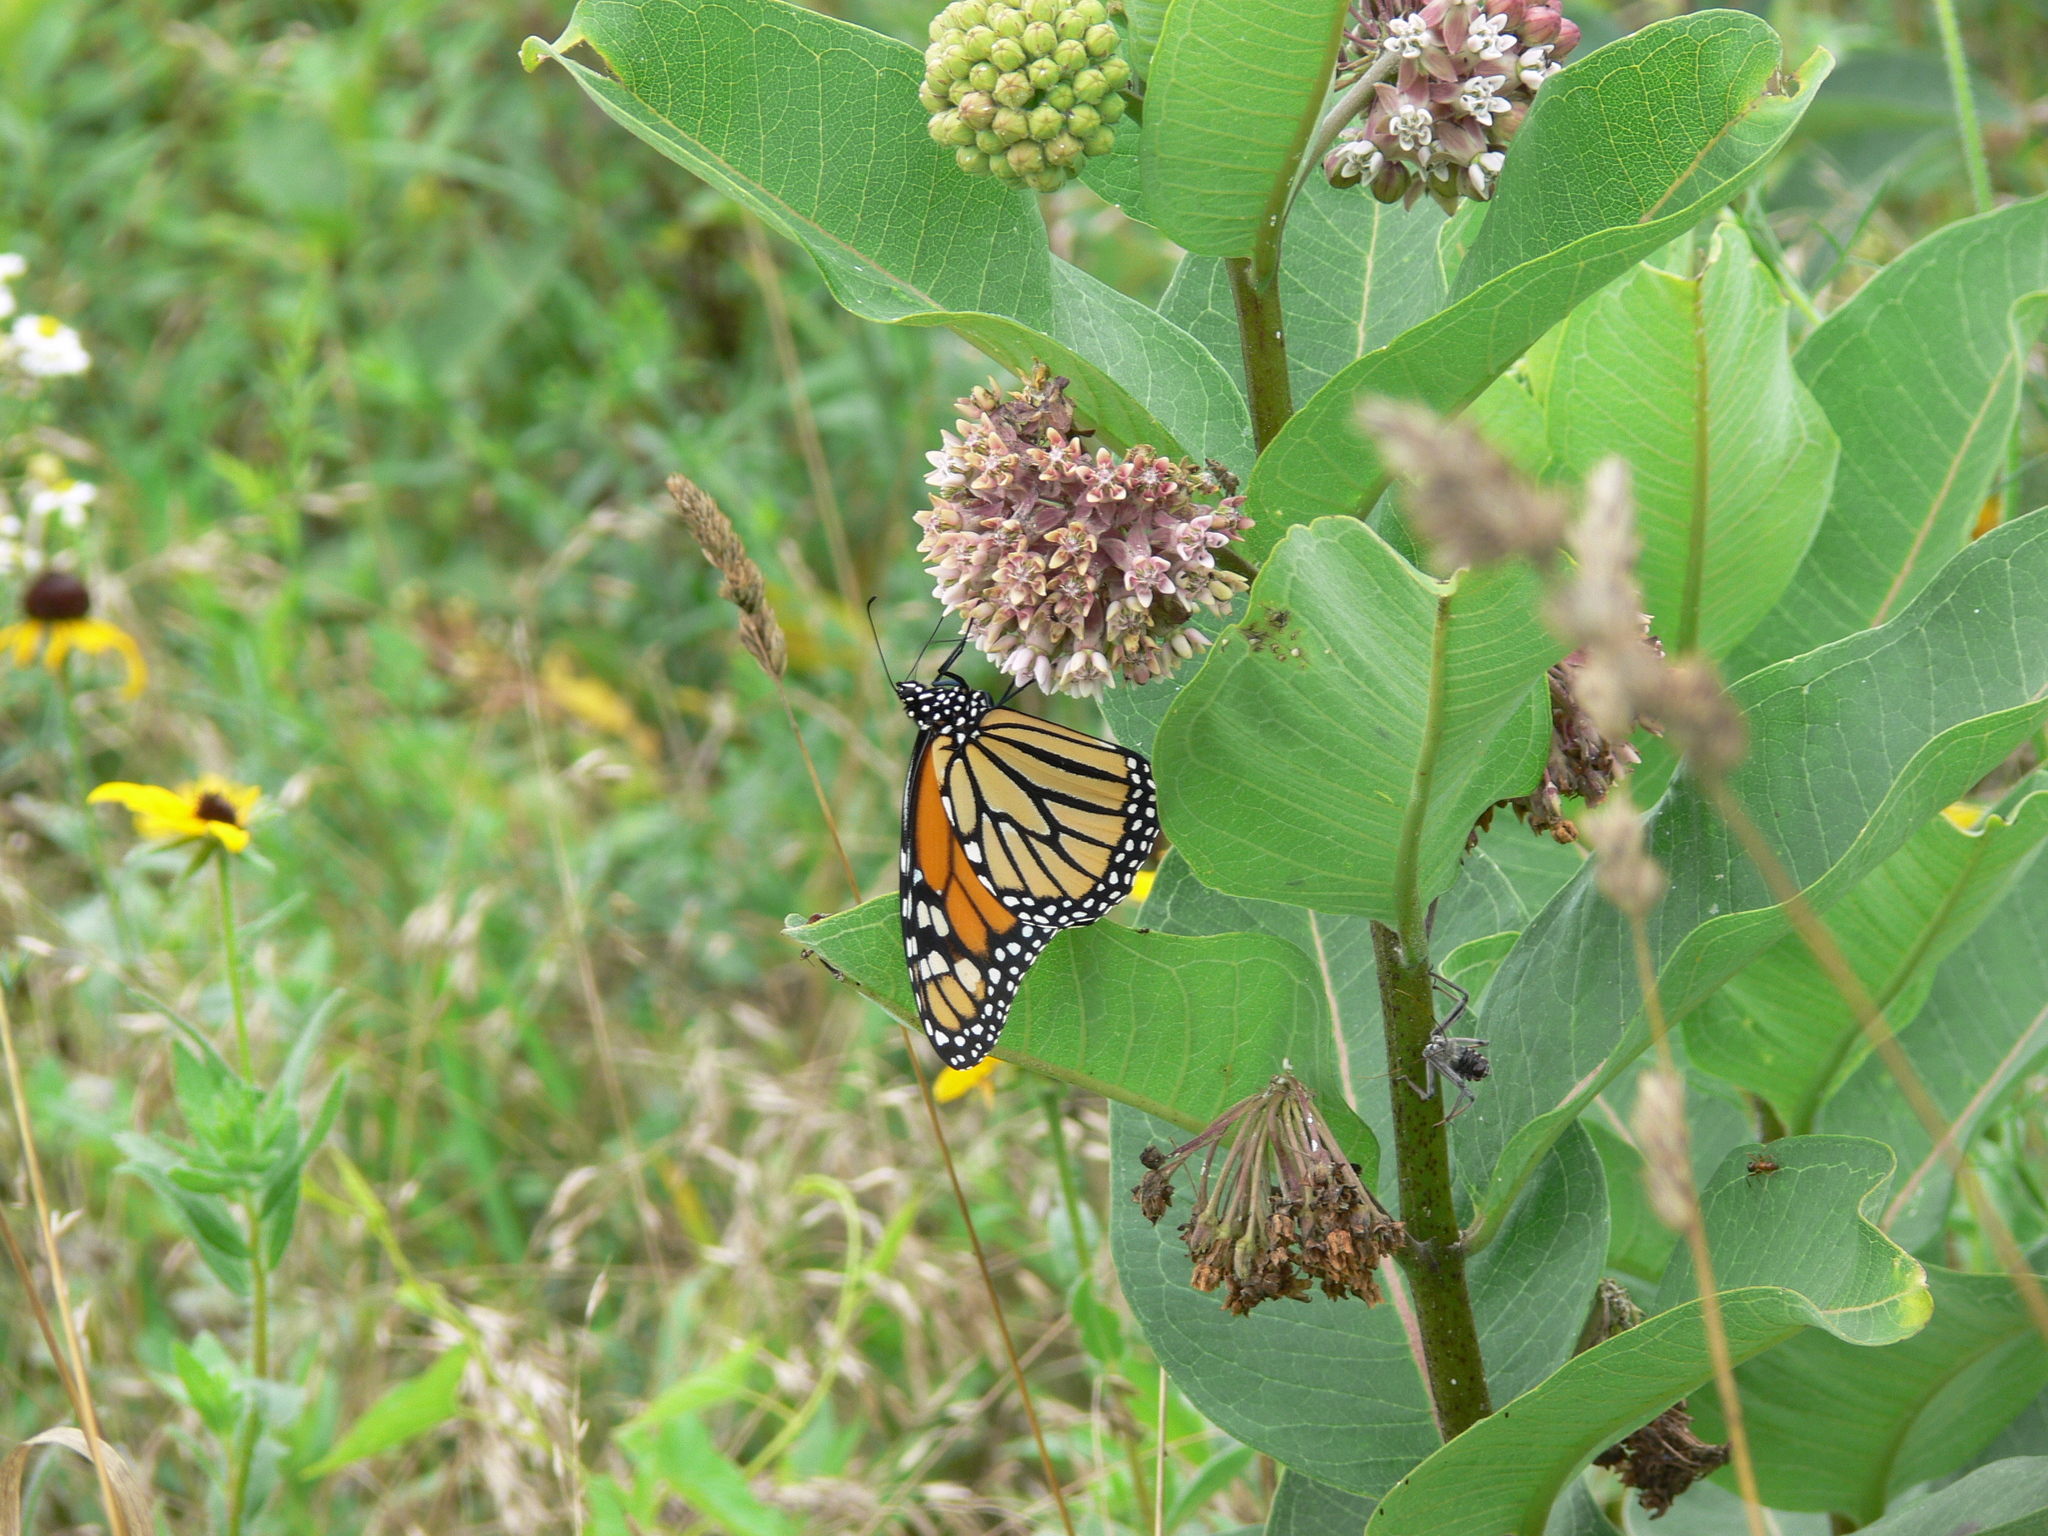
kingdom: Animalia
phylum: Arthropoda
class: Insecta
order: Lepidoptera
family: Nymphalidae
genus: Danaus
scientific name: Danaus plexippus
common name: Monarch
